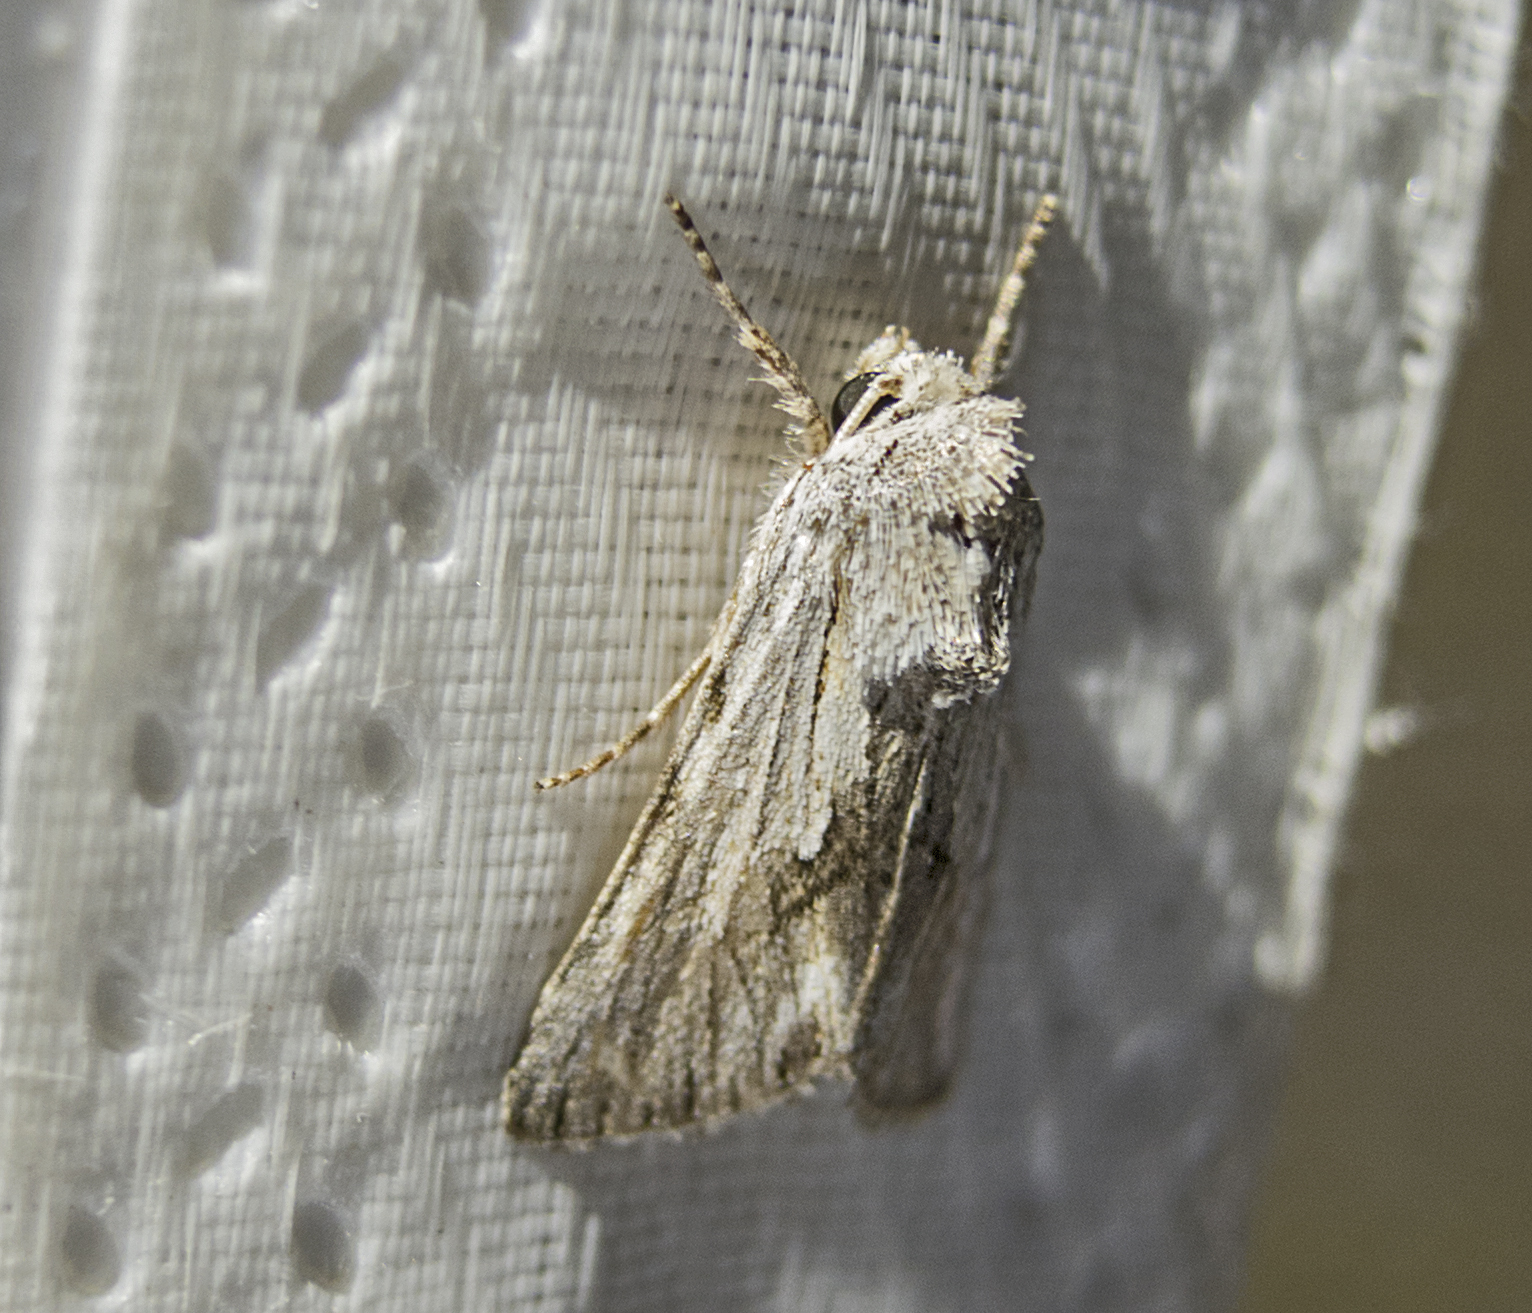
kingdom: Animalia
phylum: Arthropoda
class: Insecta
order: Lepidoptera
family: Noctuidae
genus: Calophasia
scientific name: Calophasia platyptera
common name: Antirrhinum brocade
